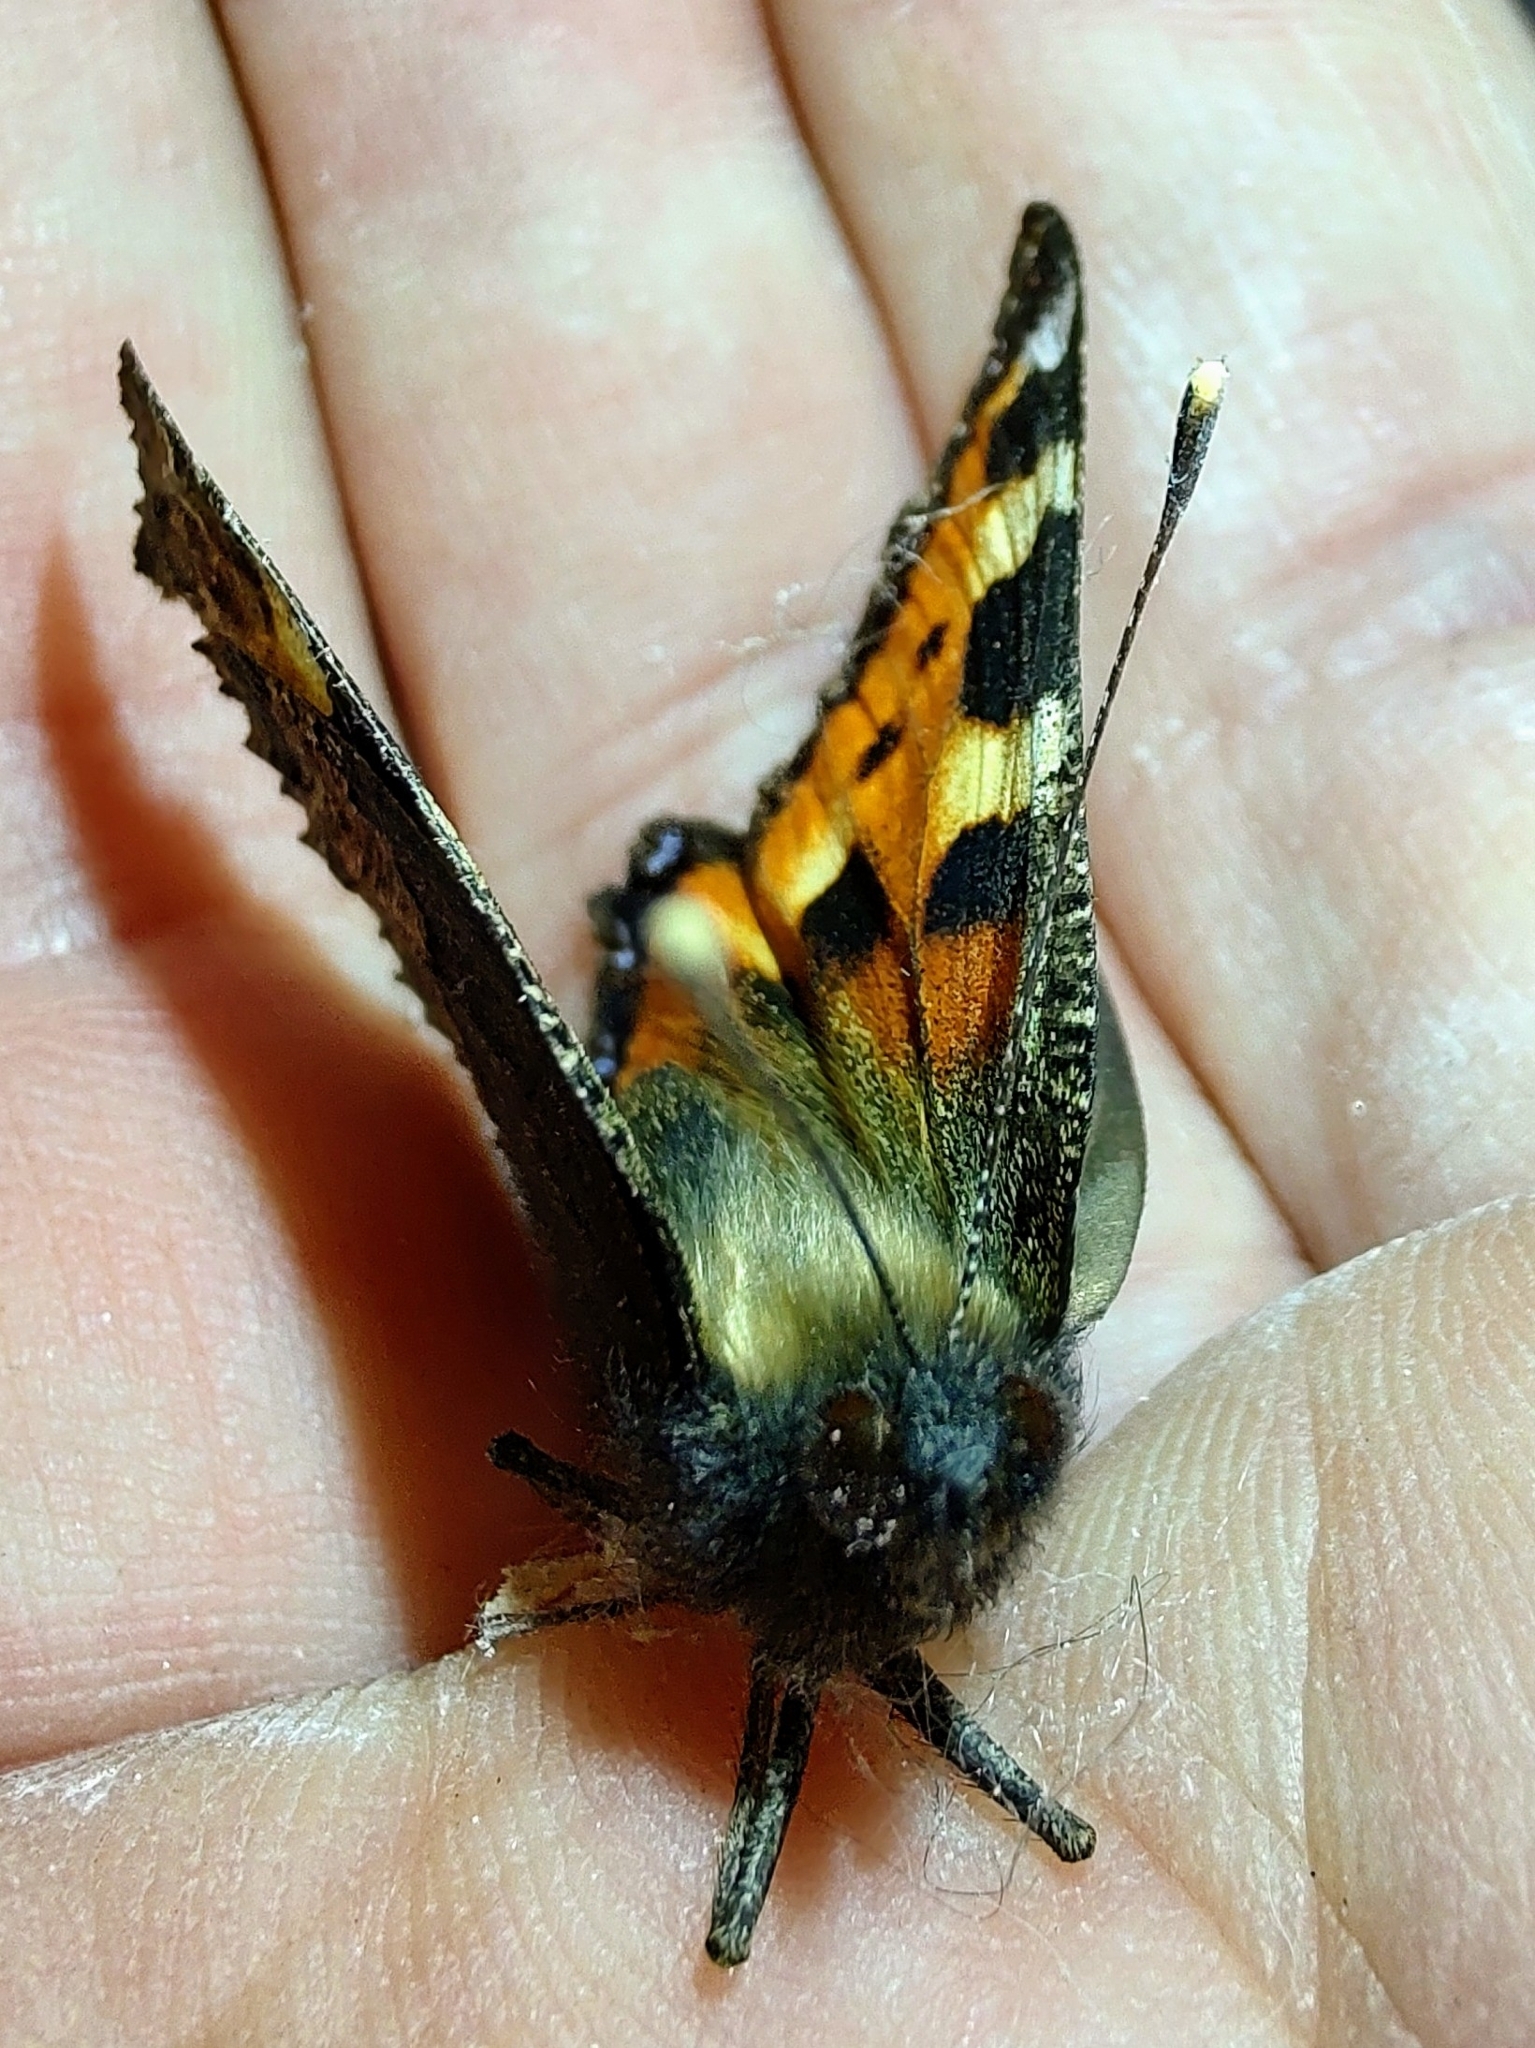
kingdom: Animalia
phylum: Arthropoda
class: Insecta
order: Lepidoptera
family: Nymphalidae
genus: Aglais
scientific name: Aglais urticae
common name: Small tortoiseshell
